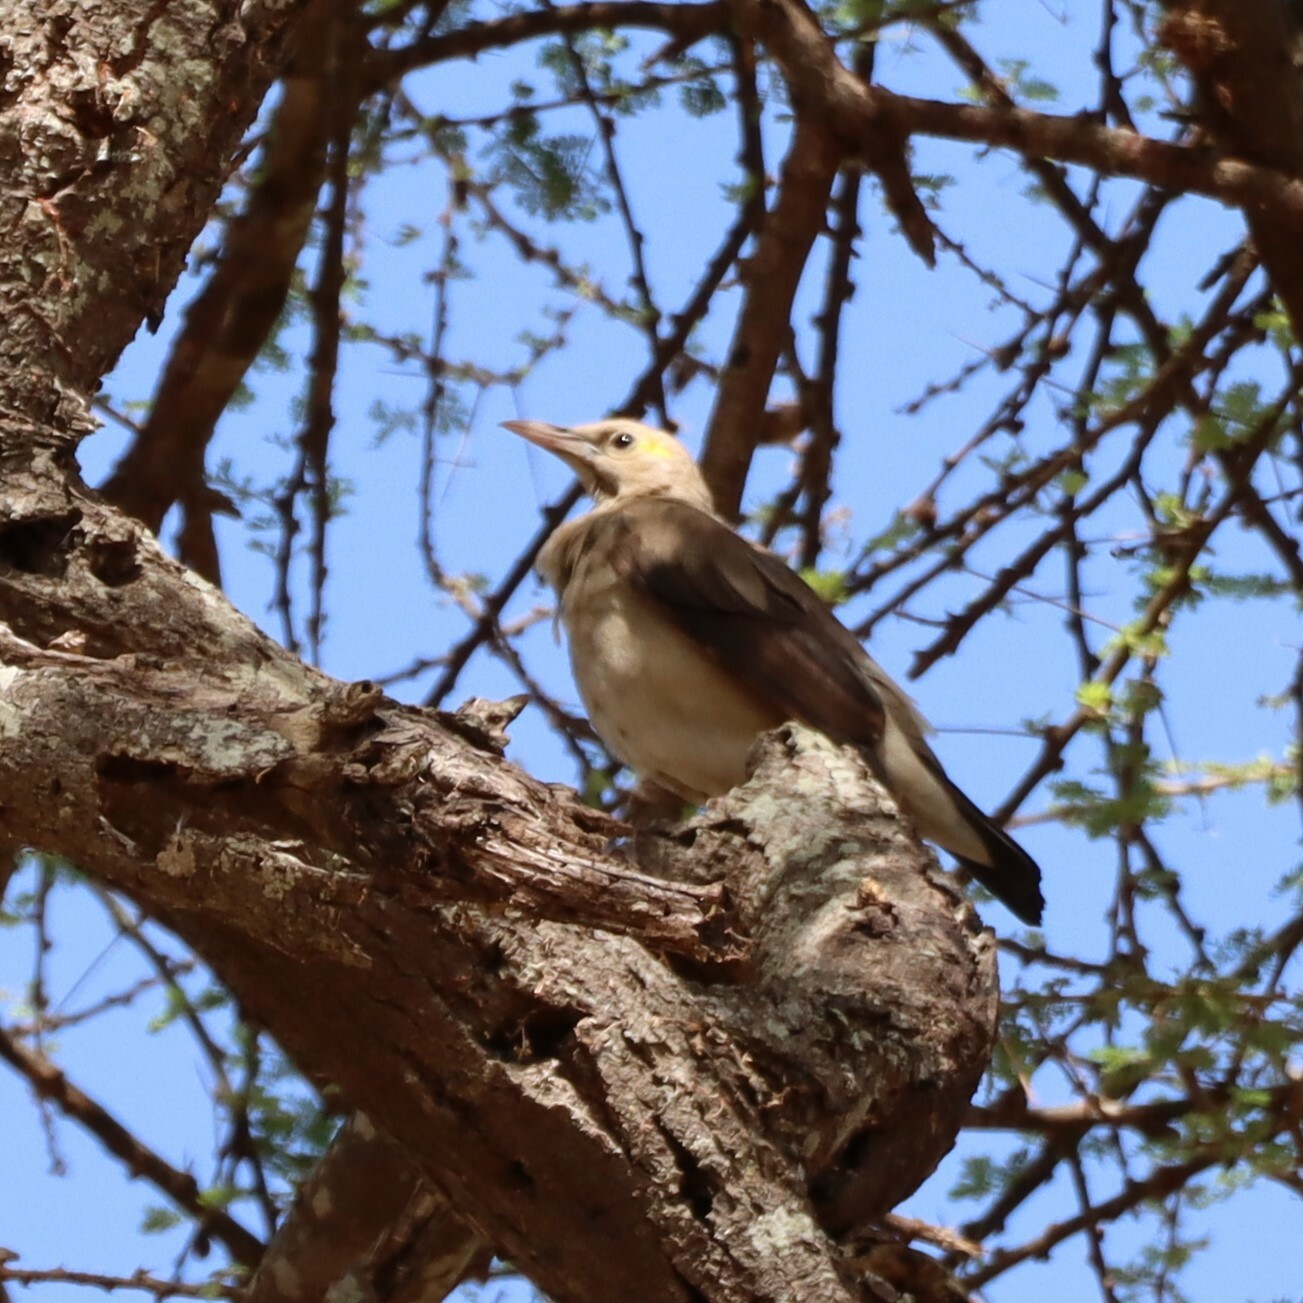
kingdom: Animalia
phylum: Chordata
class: Aves
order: Passeriformes
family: Sturnidae
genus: Creatophora
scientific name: Creatophora cinerea
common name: Wattled starling
